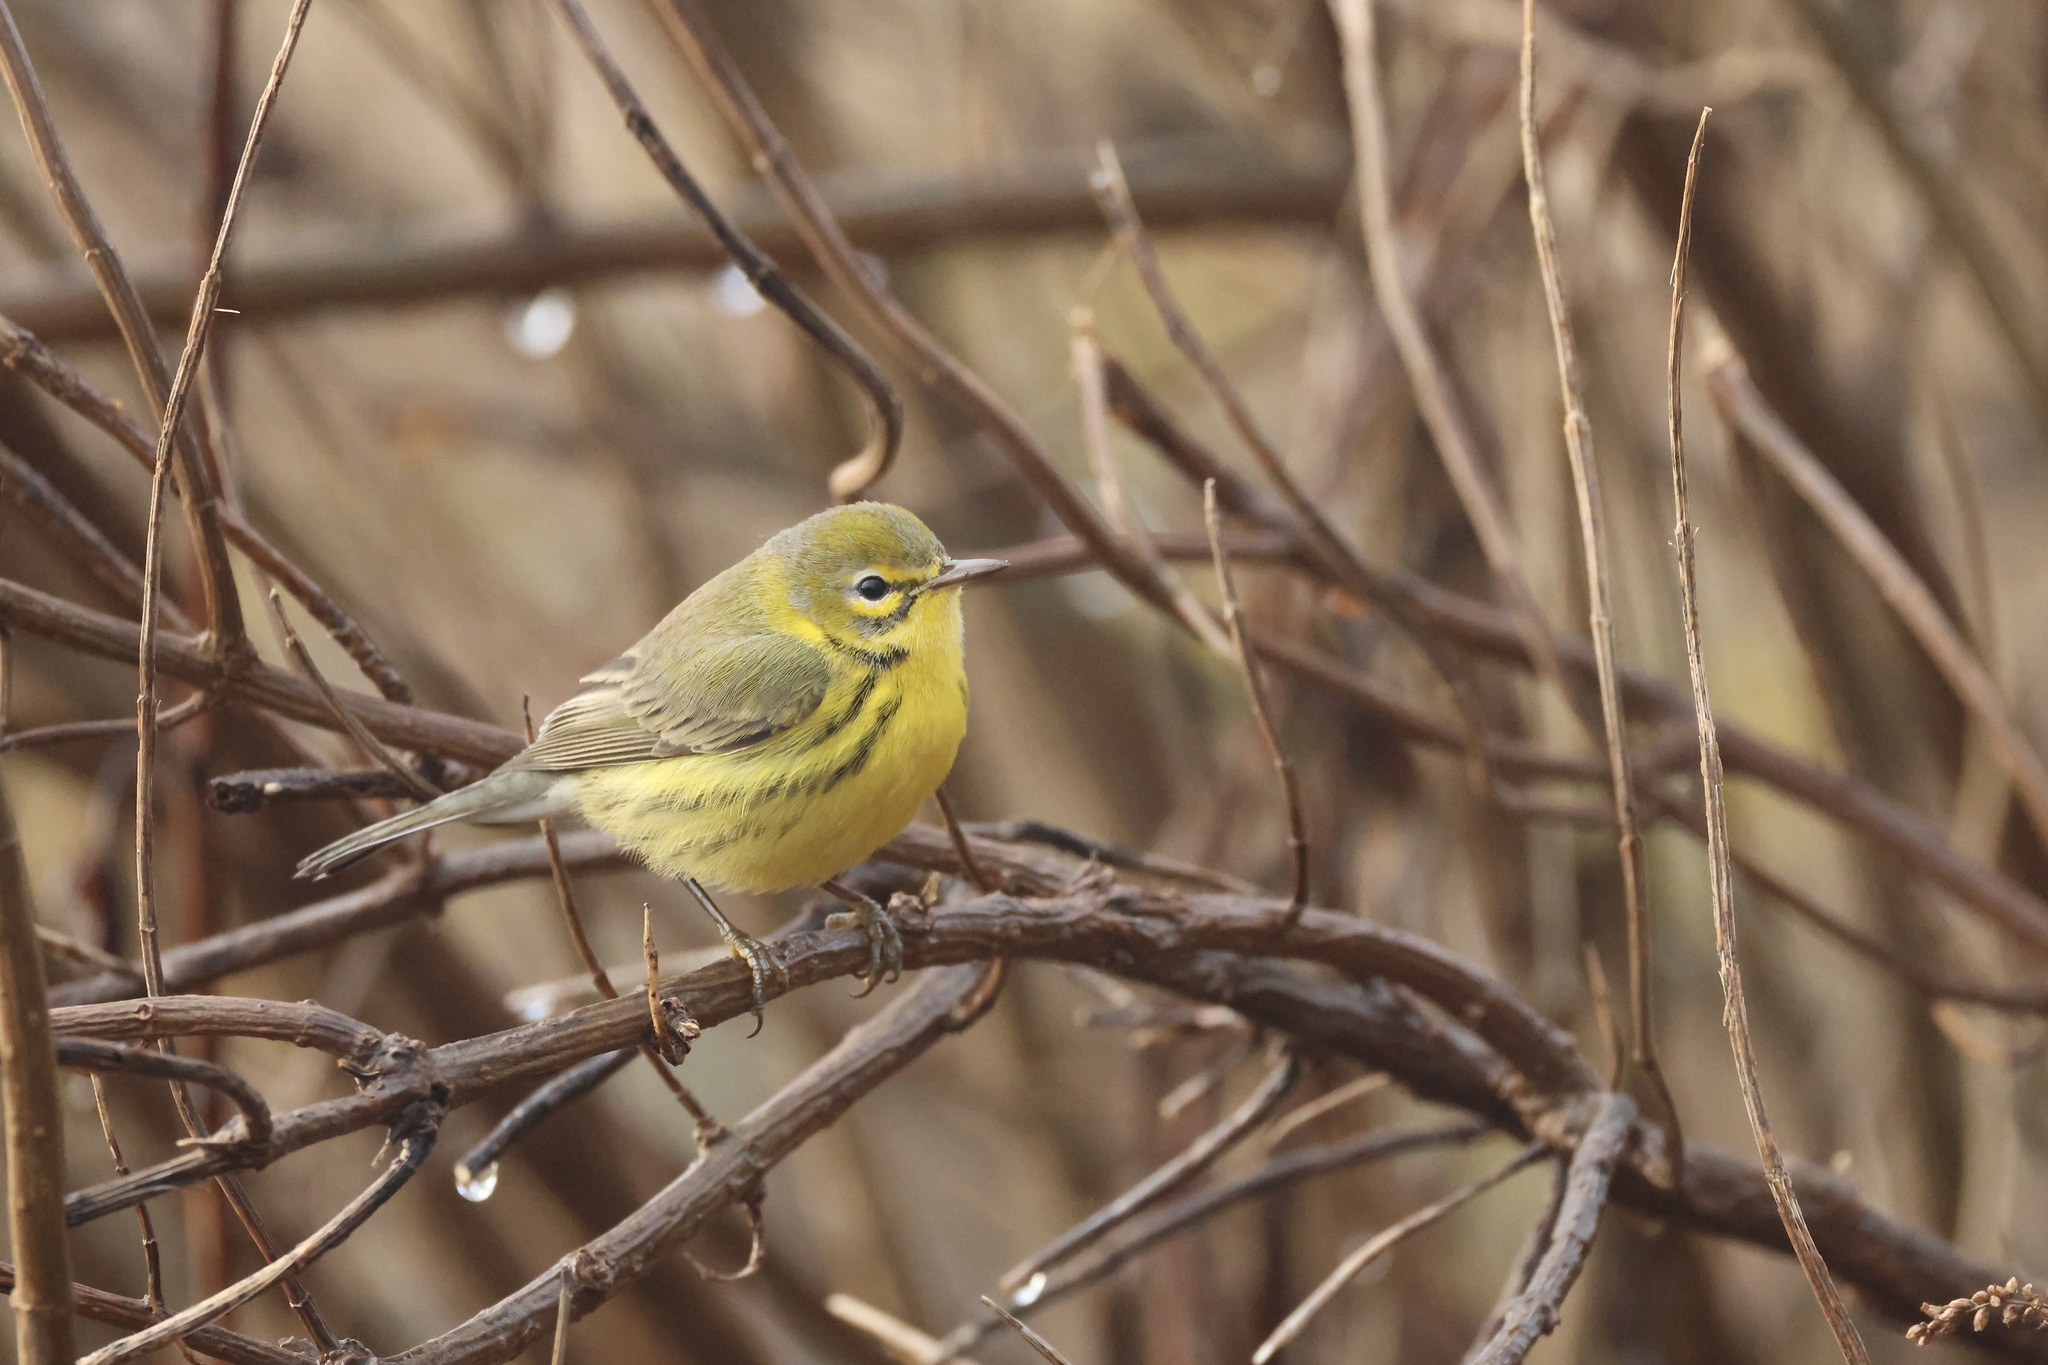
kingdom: Animalia
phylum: Chordata
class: Aves
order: Passeriformes
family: Parulidae
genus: Setophaga
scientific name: Setophaga discolor
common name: Prairie warbler
